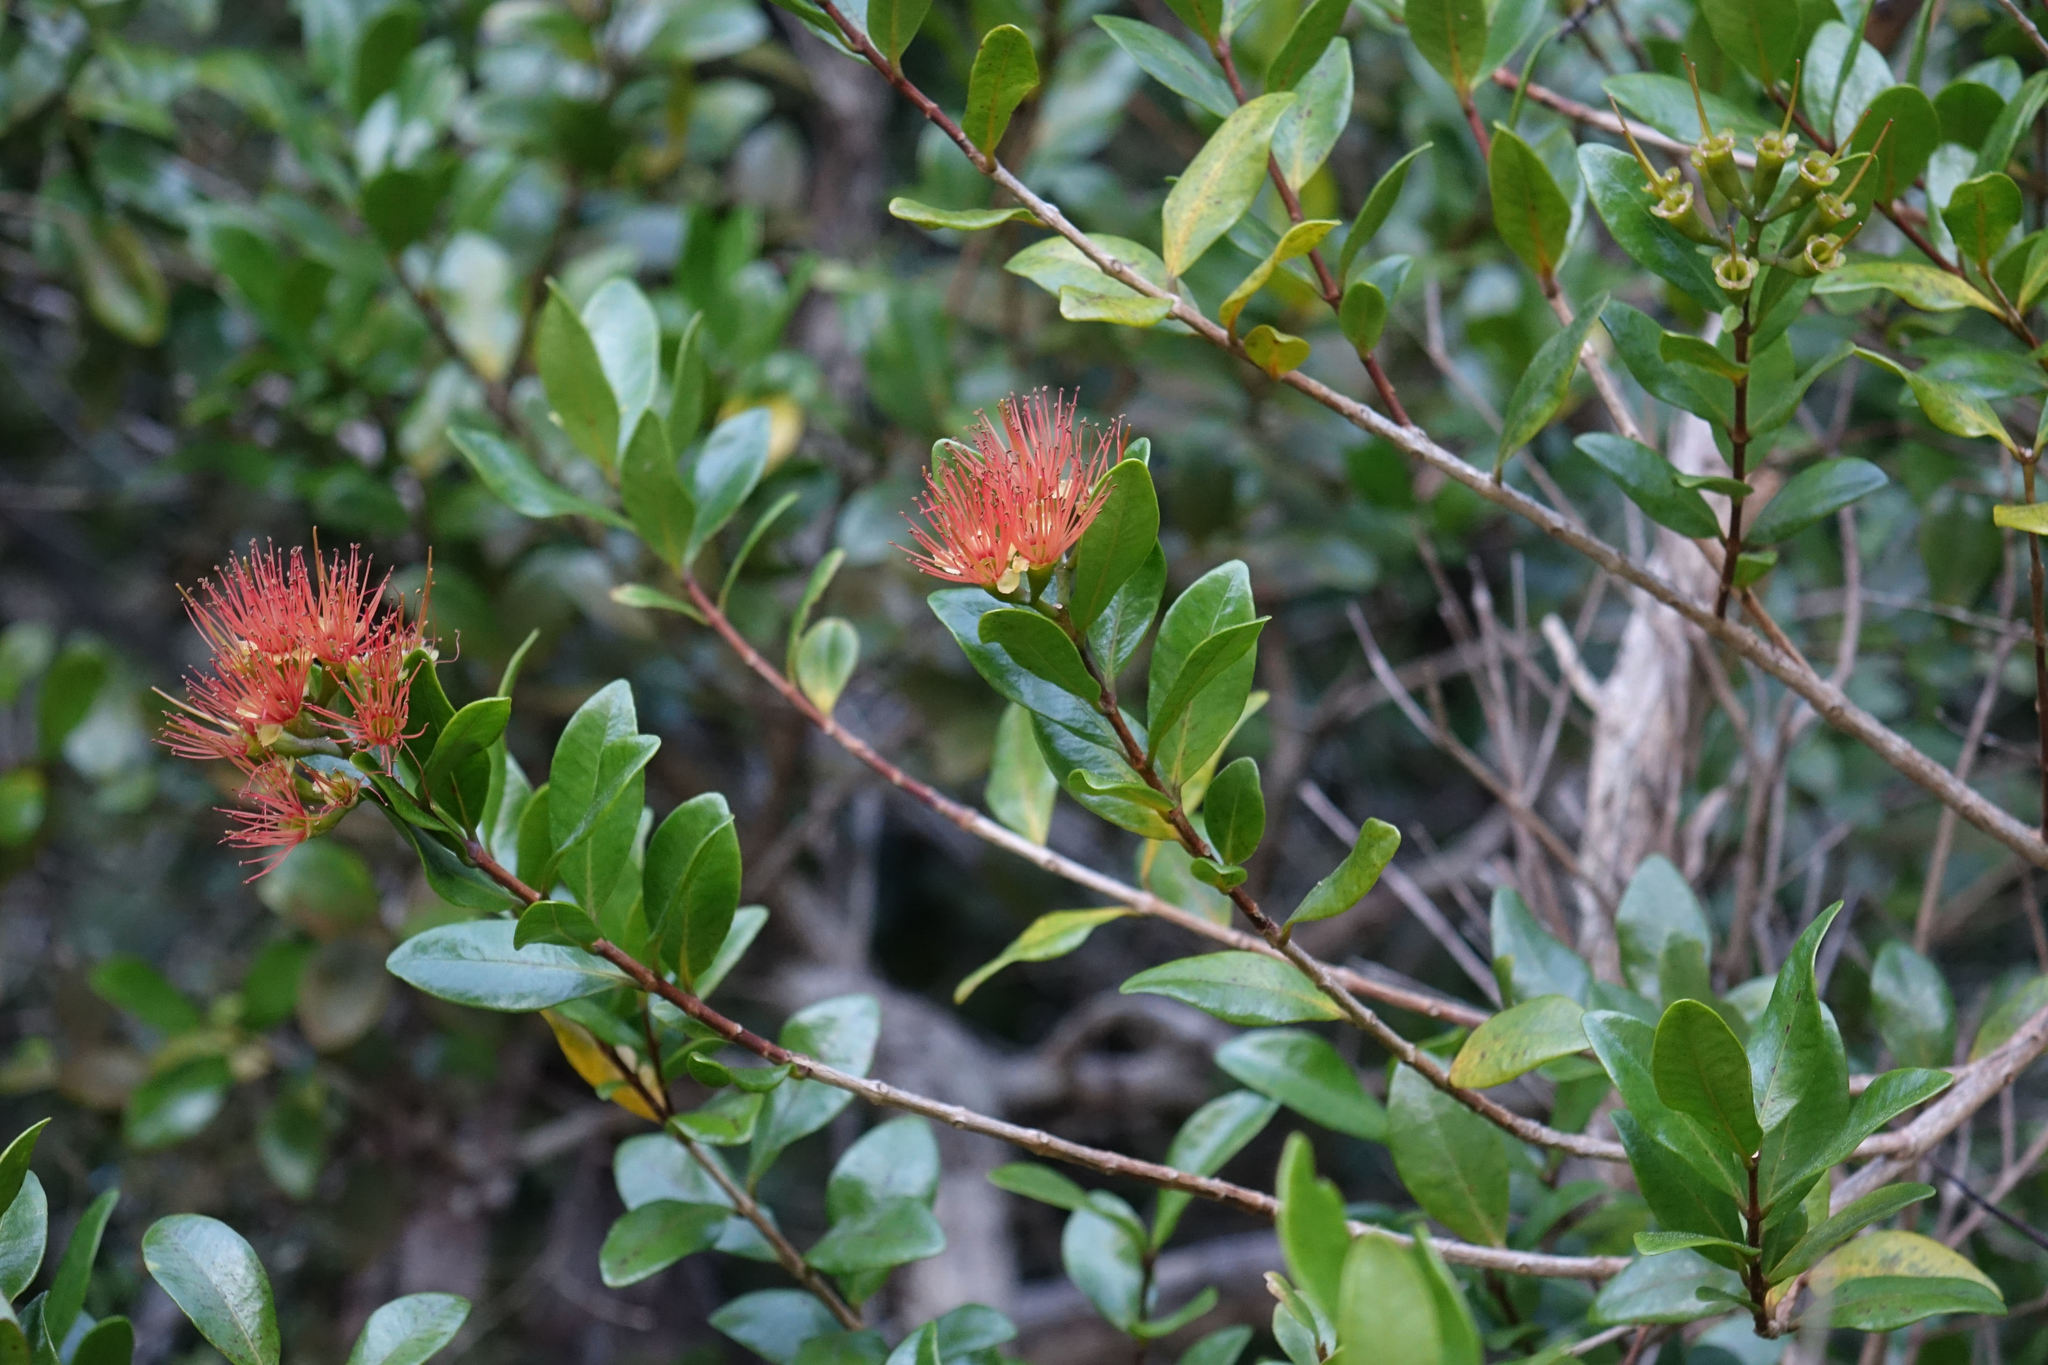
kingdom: Plantae
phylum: Tracheophyta
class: Magnoliopsida
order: Myrtales
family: Myrtaceae
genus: Metrosideros
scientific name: Metrosideros fulgens
